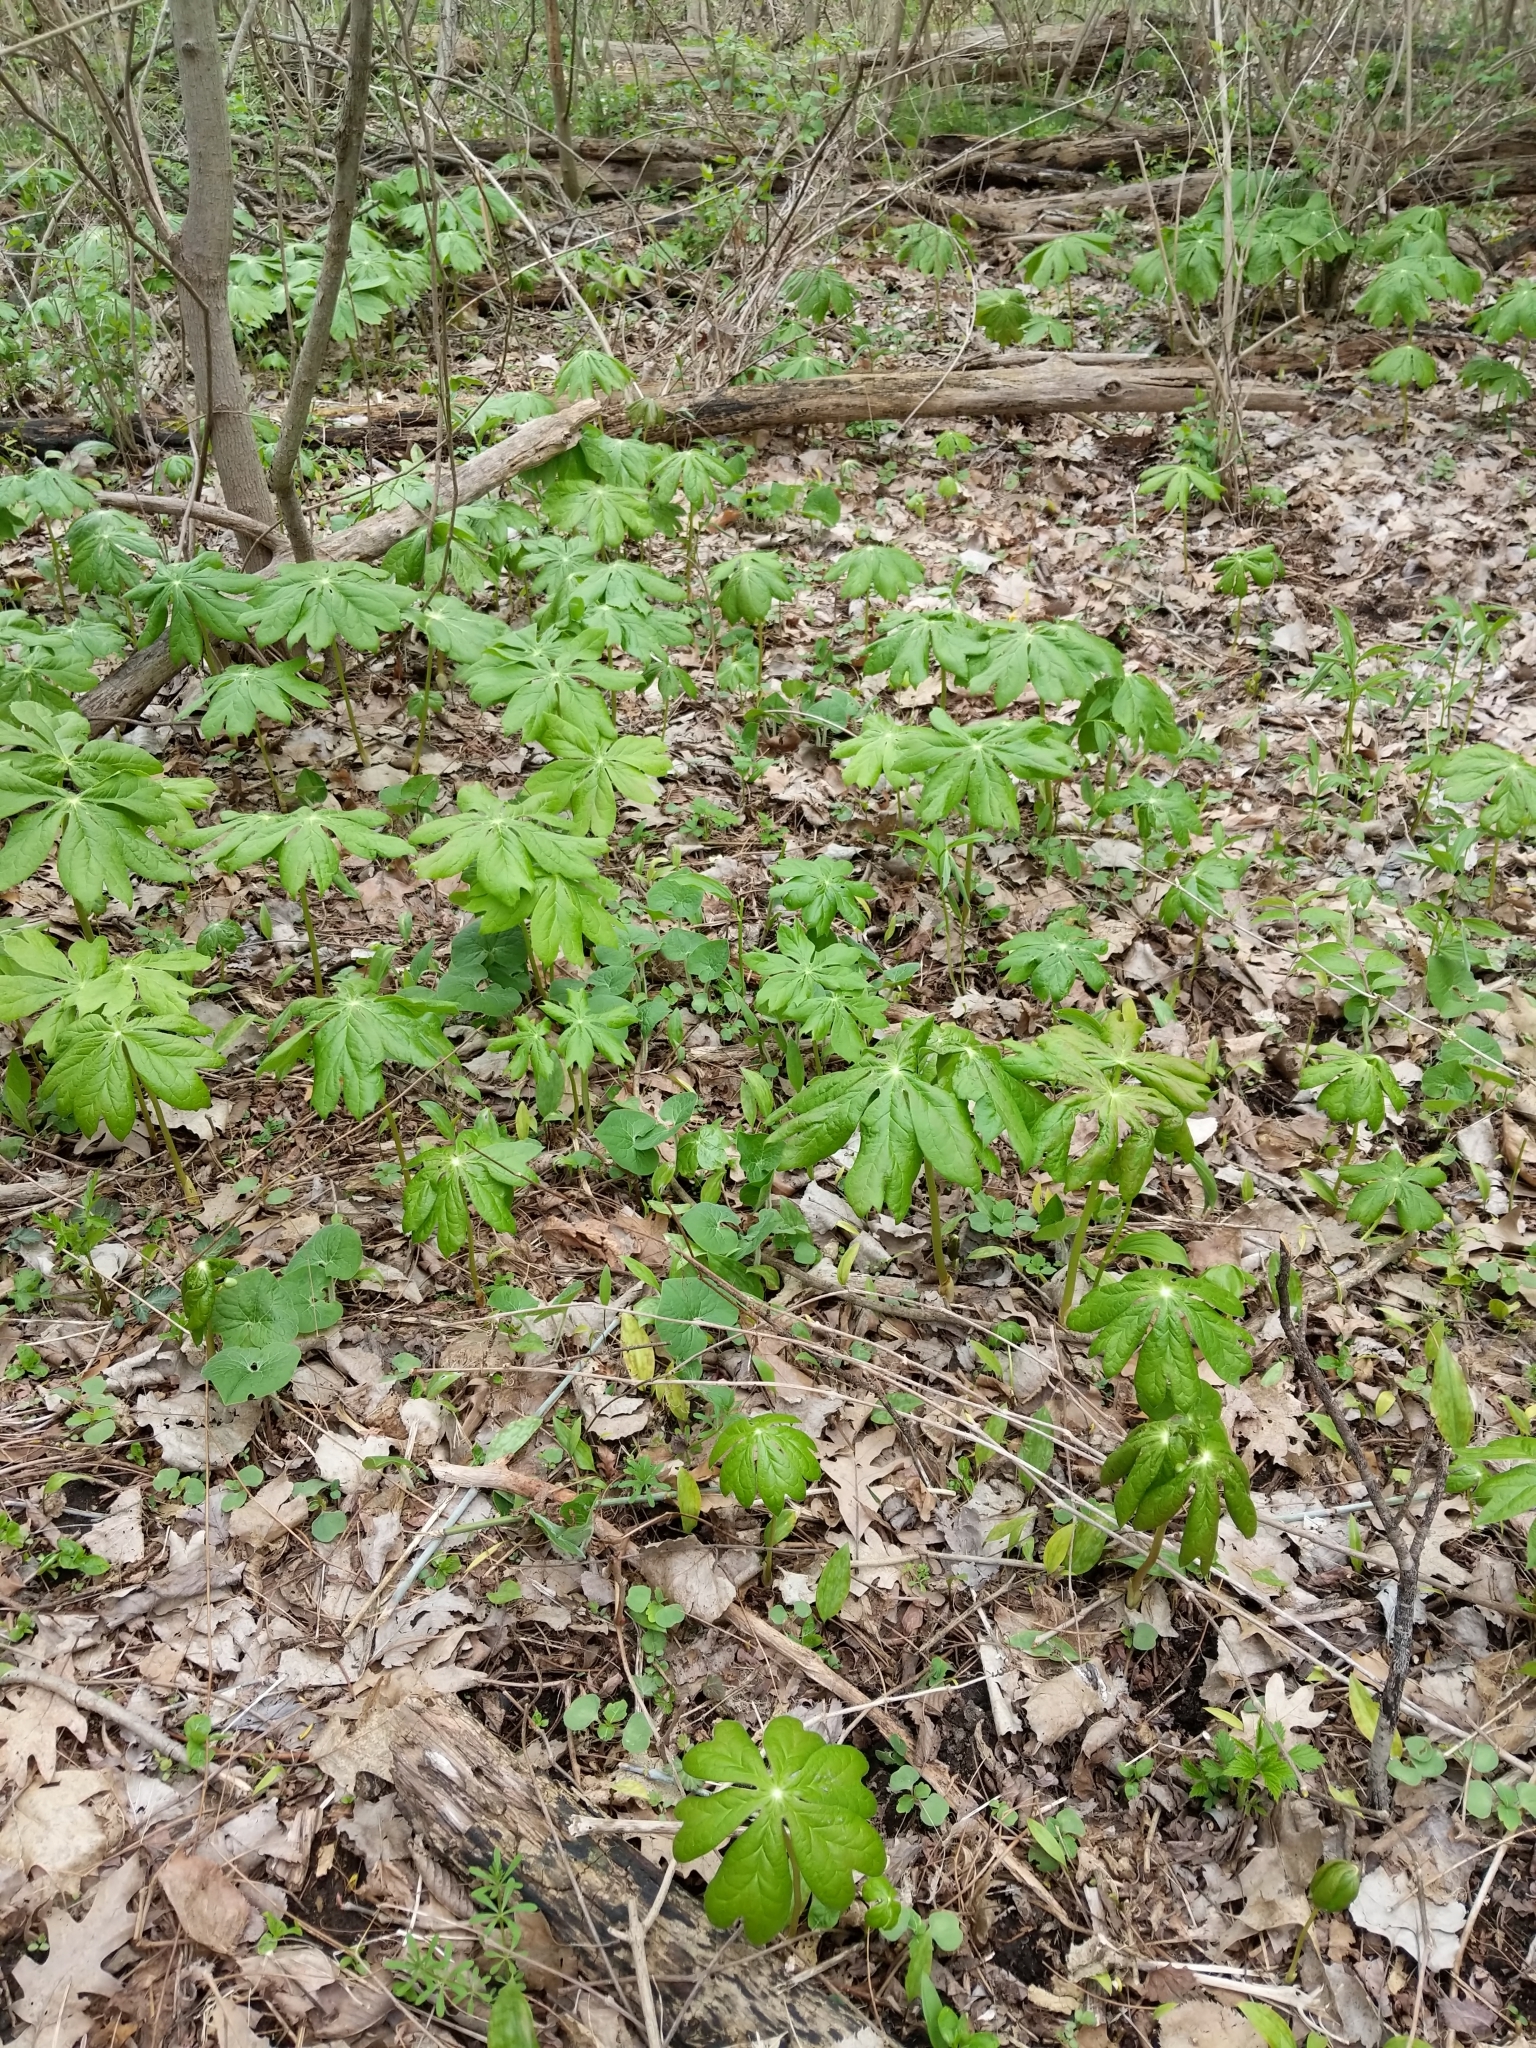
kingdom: Plantae
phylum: Tracheophyta
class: Magnoliopsida
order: Ranunculales
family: Berberidaceae
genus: Podophyllum
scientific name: Podophyllum peltatum
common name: Wild mandrake
